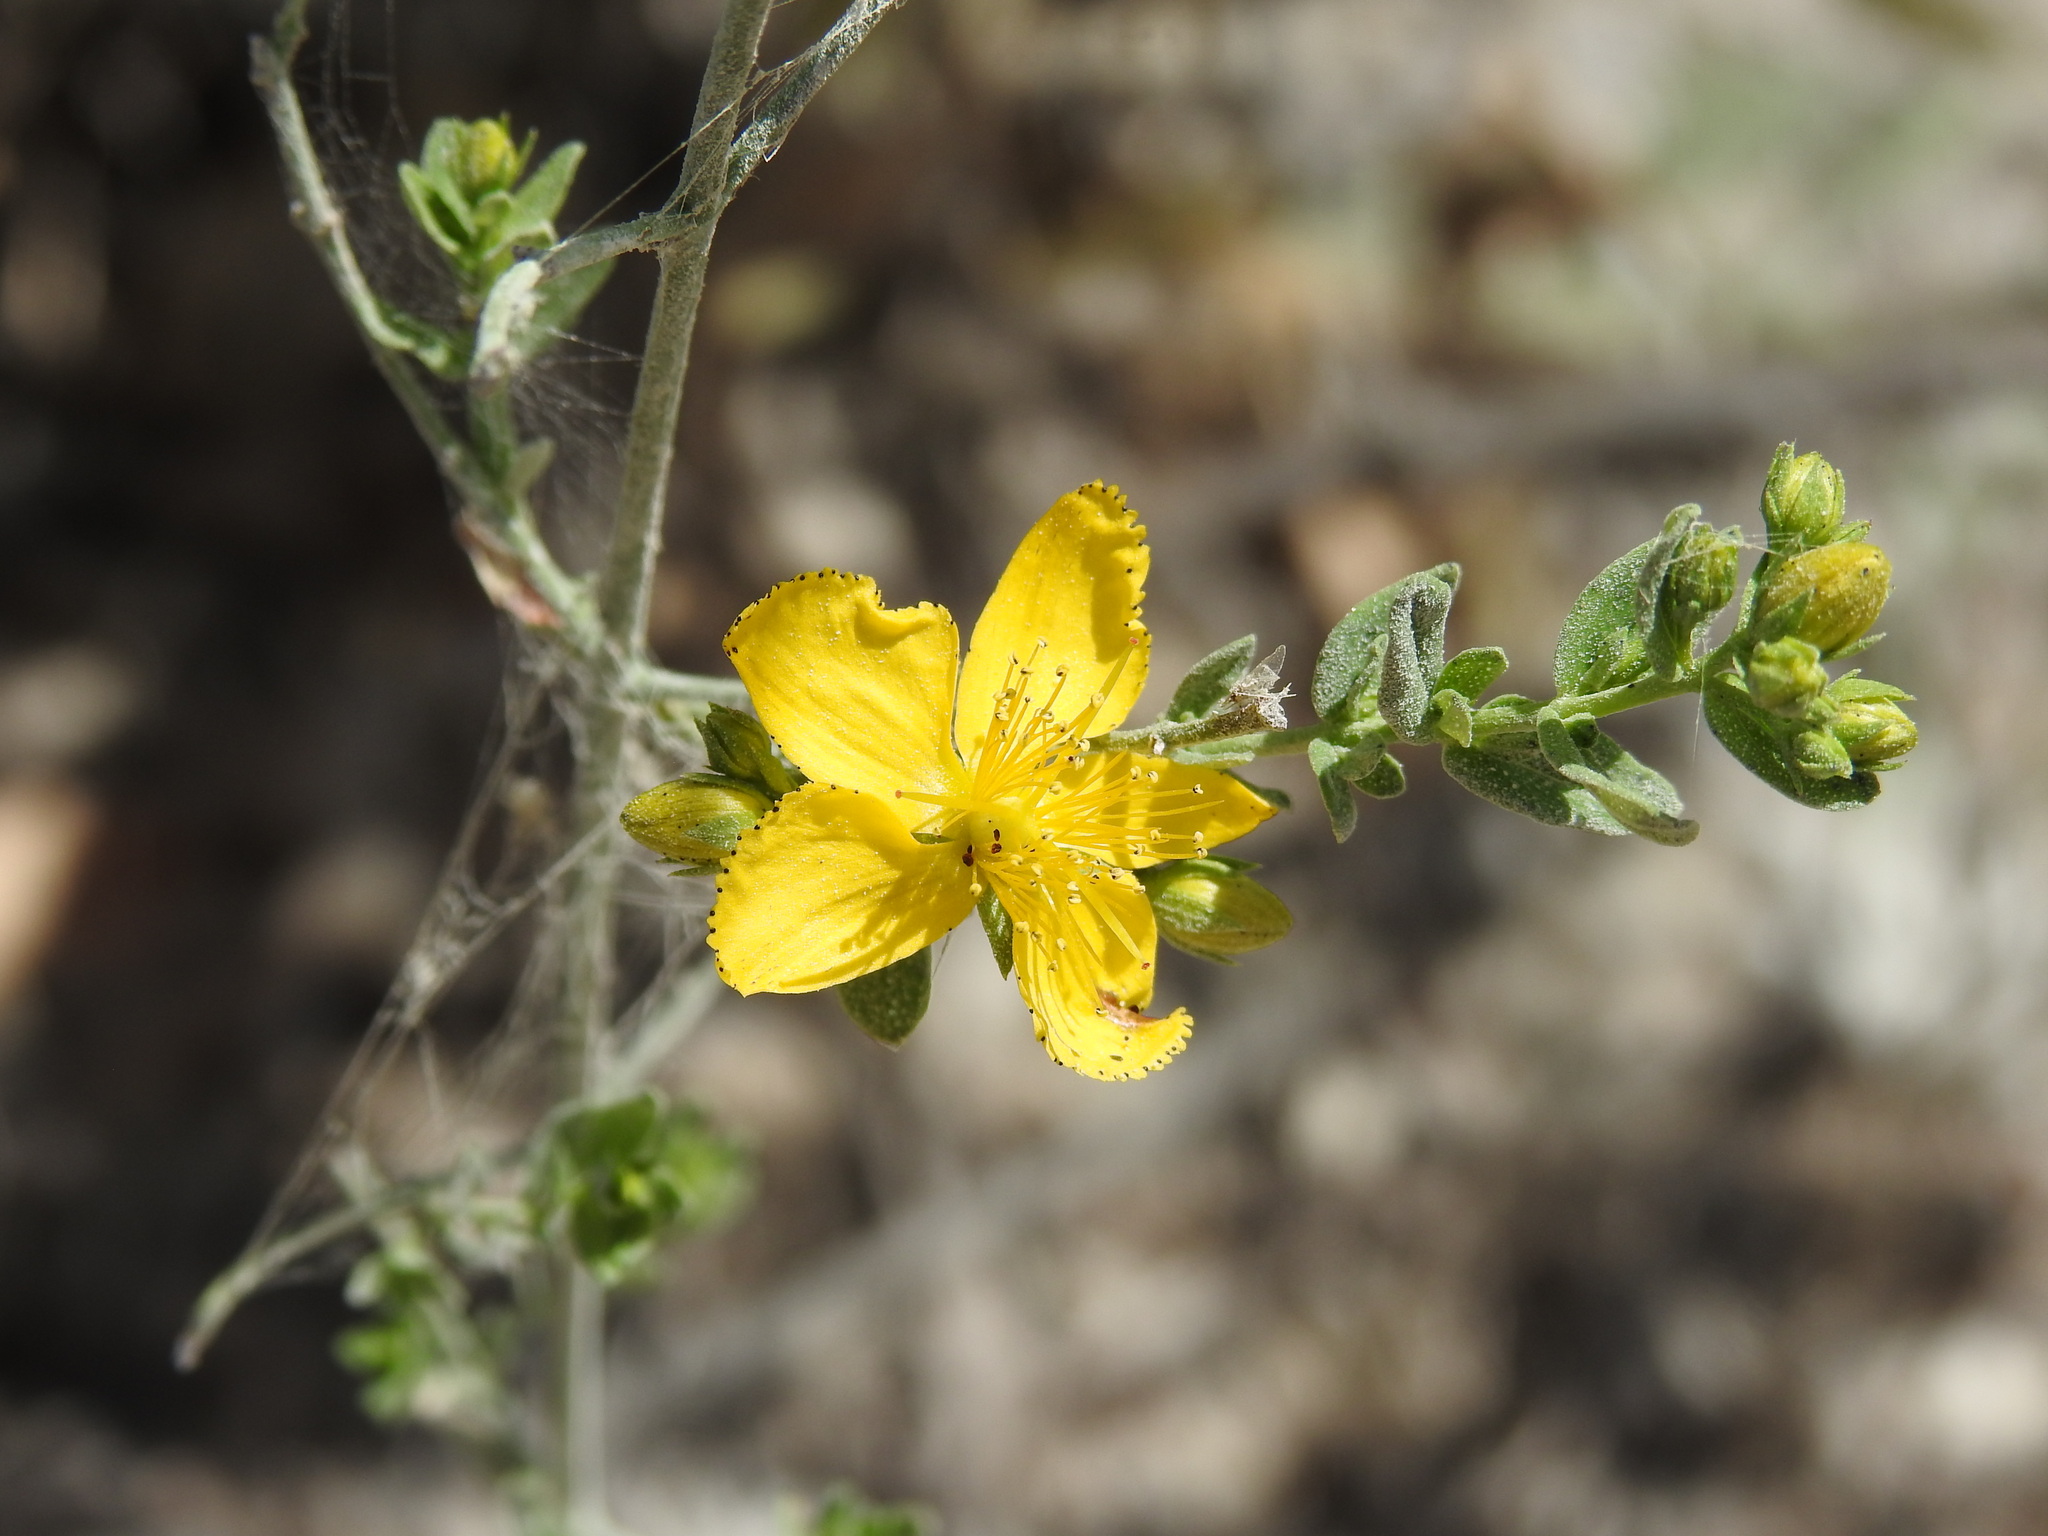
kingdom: Plantae
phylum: Tracheophyta
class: Magnoliopsida
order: Malpighiales
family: Hypericaceae
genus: Hypericum
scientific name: Hypericum perforatum
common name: Common st. johnswort
